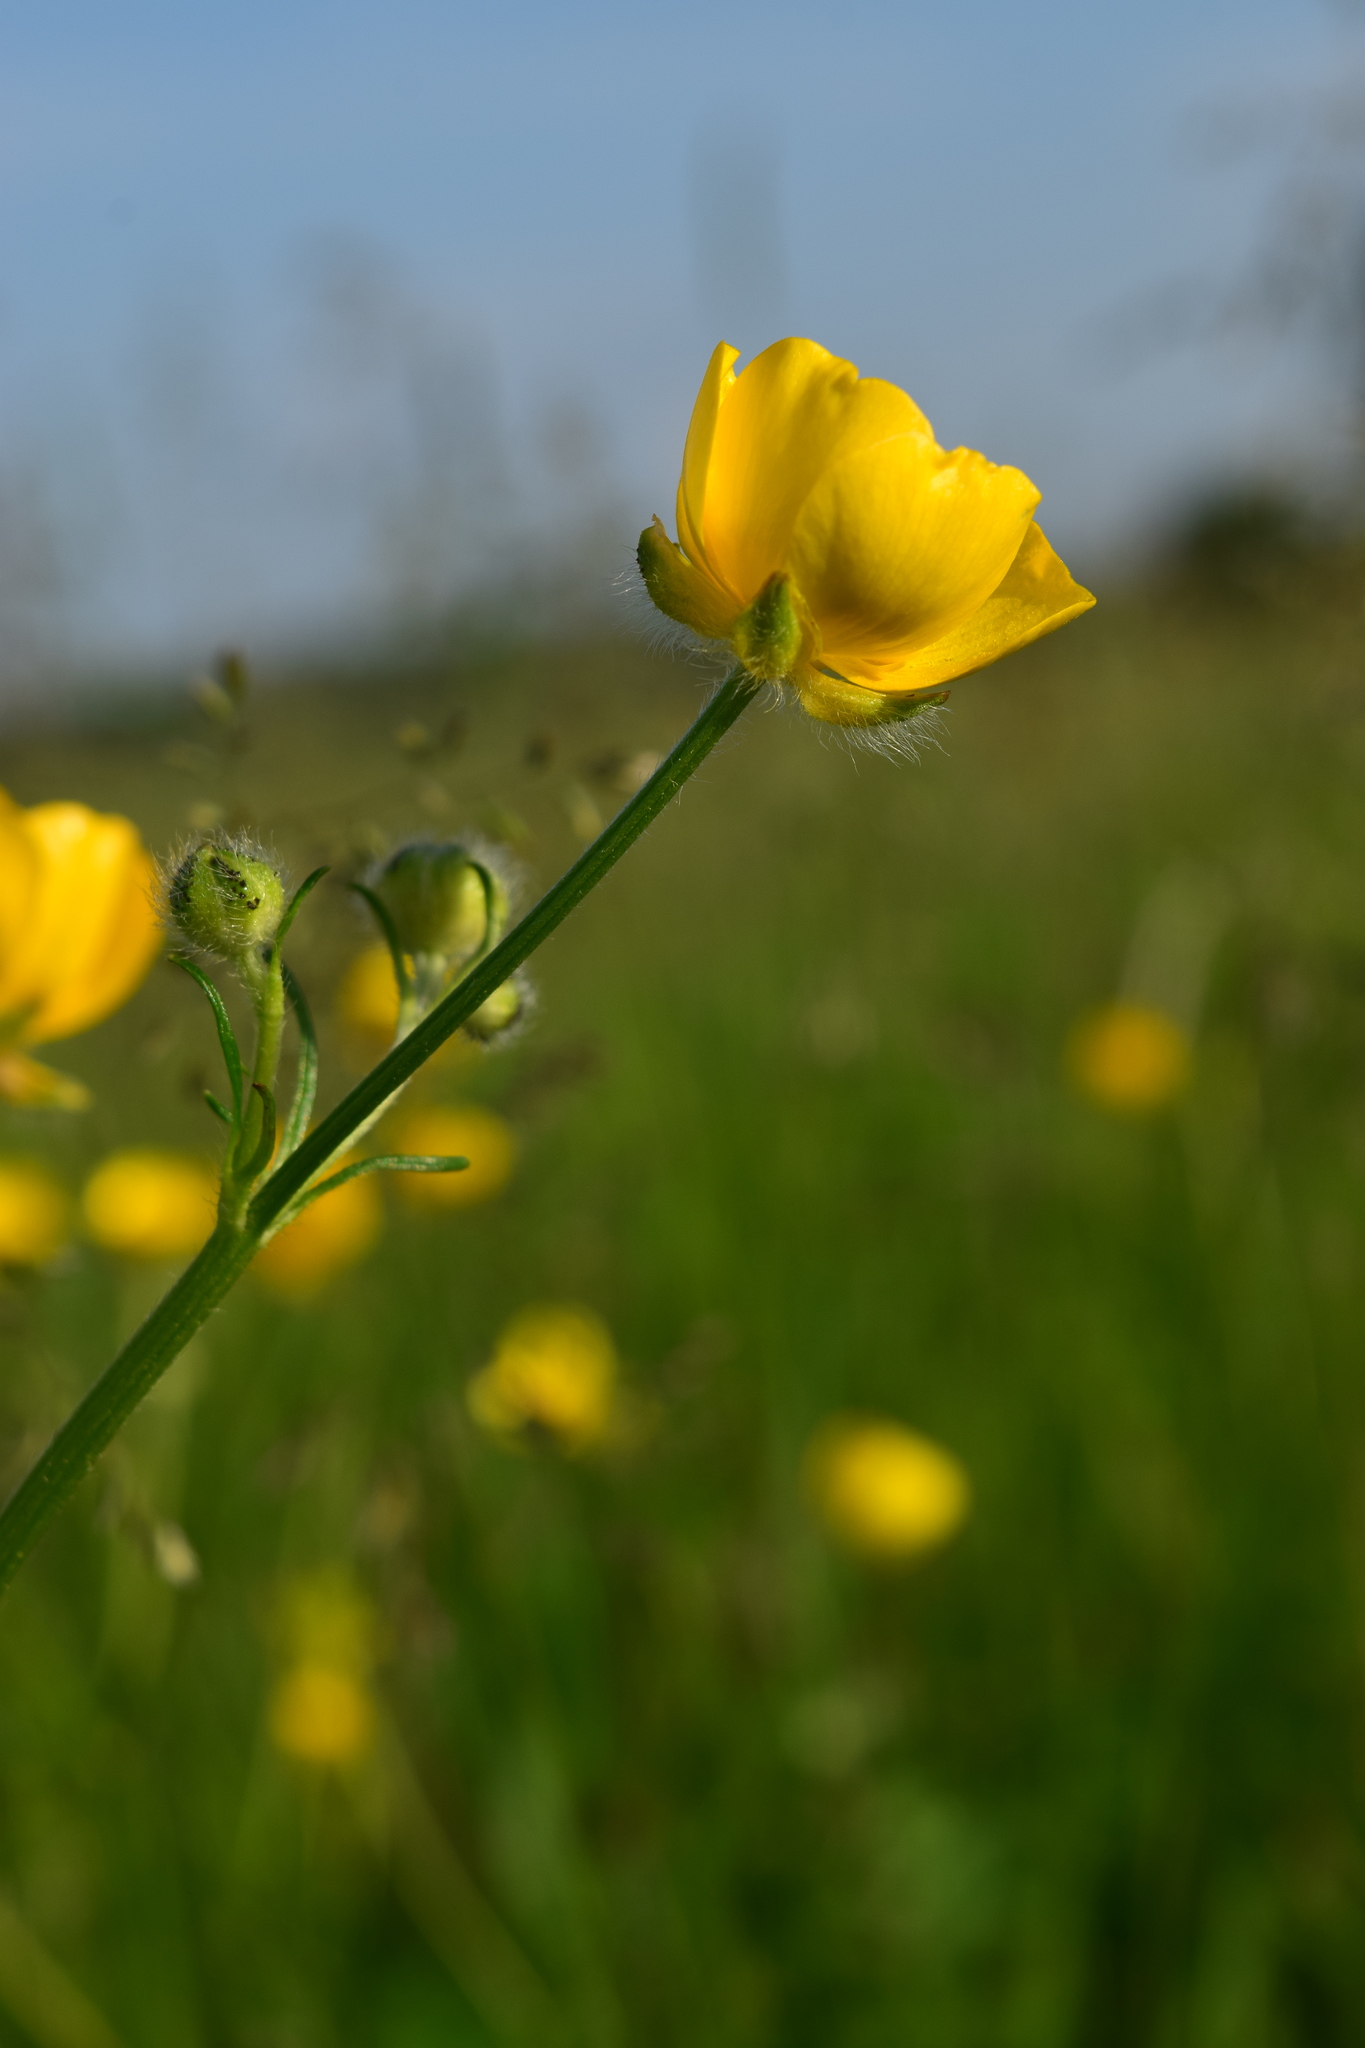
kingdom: Plantae
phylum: Tracheophyta
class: Magnoliopsida
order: Ranunculales
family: Ranunculaceae
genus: Ranunculus
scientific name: Ranunculus polyanthemos
